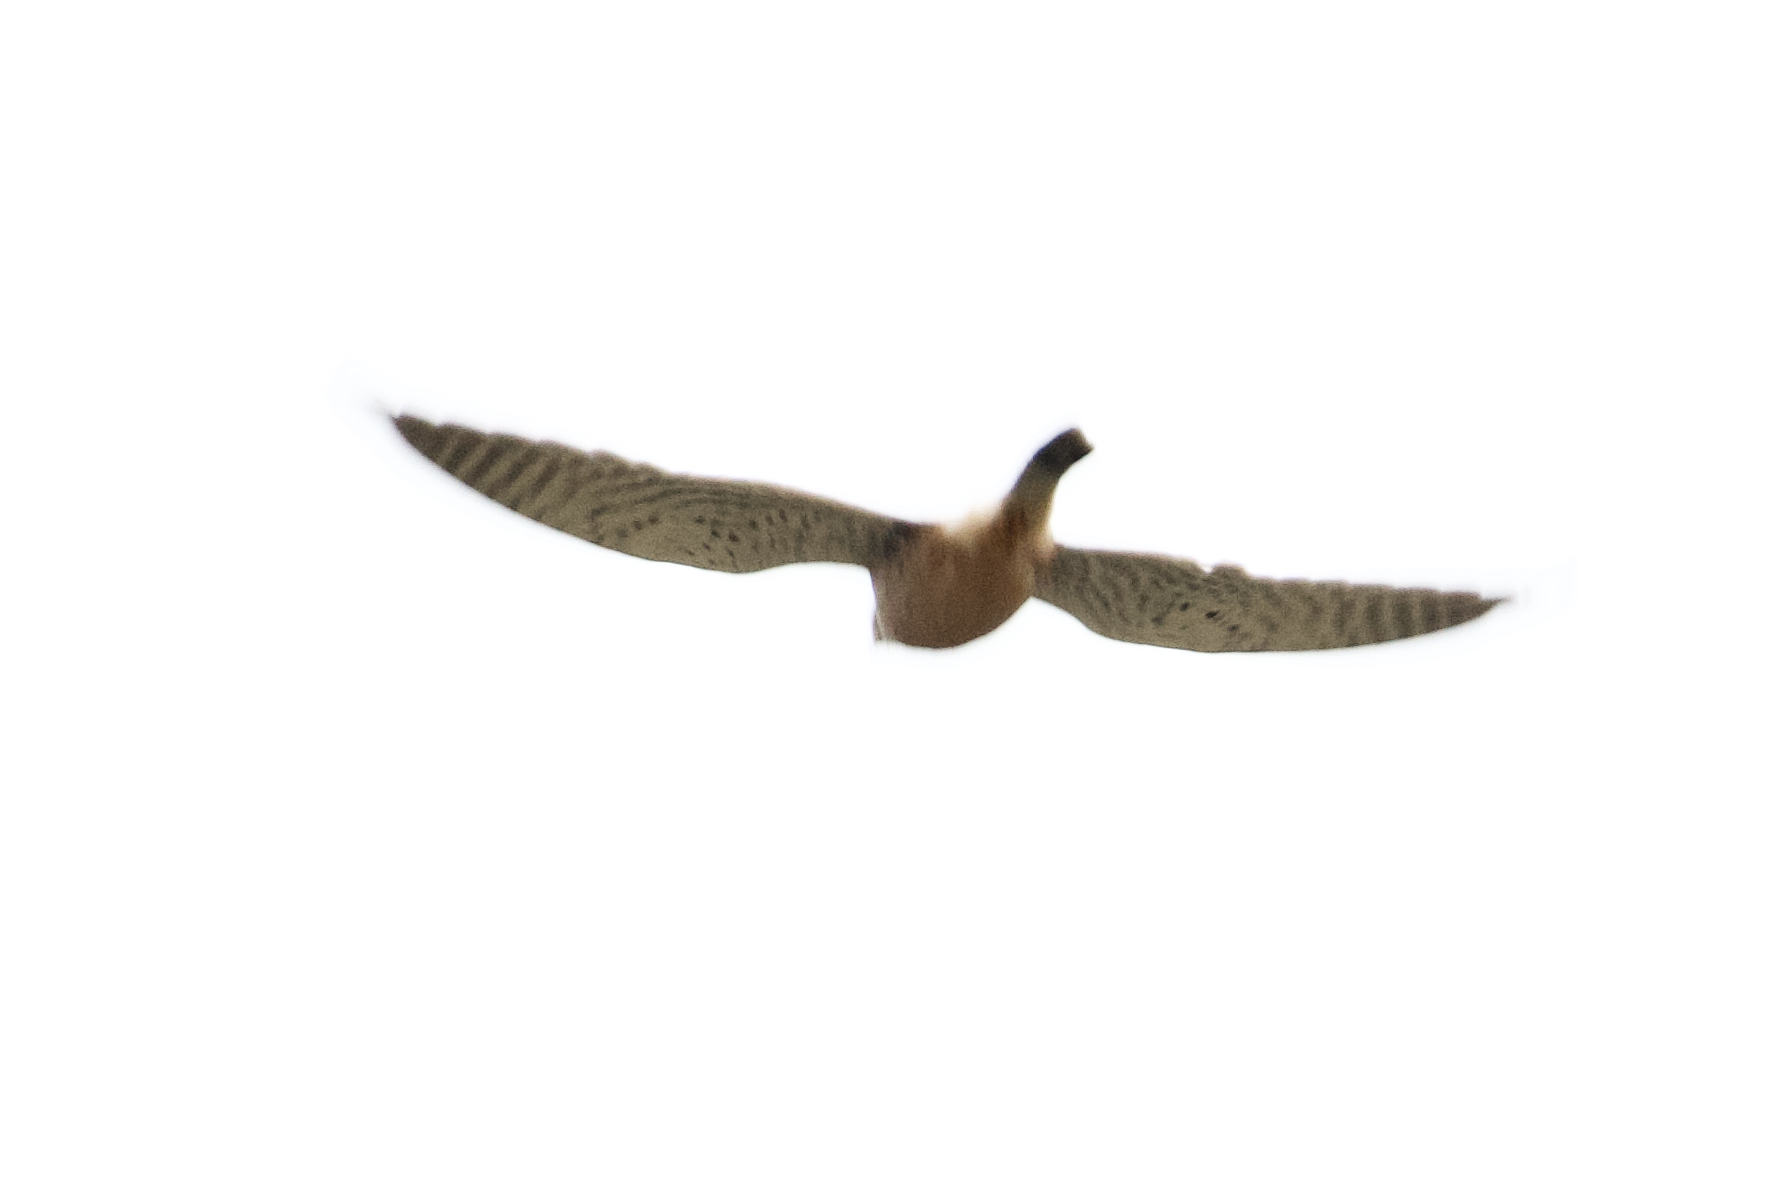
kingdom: Animalia
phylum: Chordata
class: Aves
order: Falconiformes
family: Falconidae
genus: Falco
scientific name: Falco tinnunculus
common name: Common kestrel
